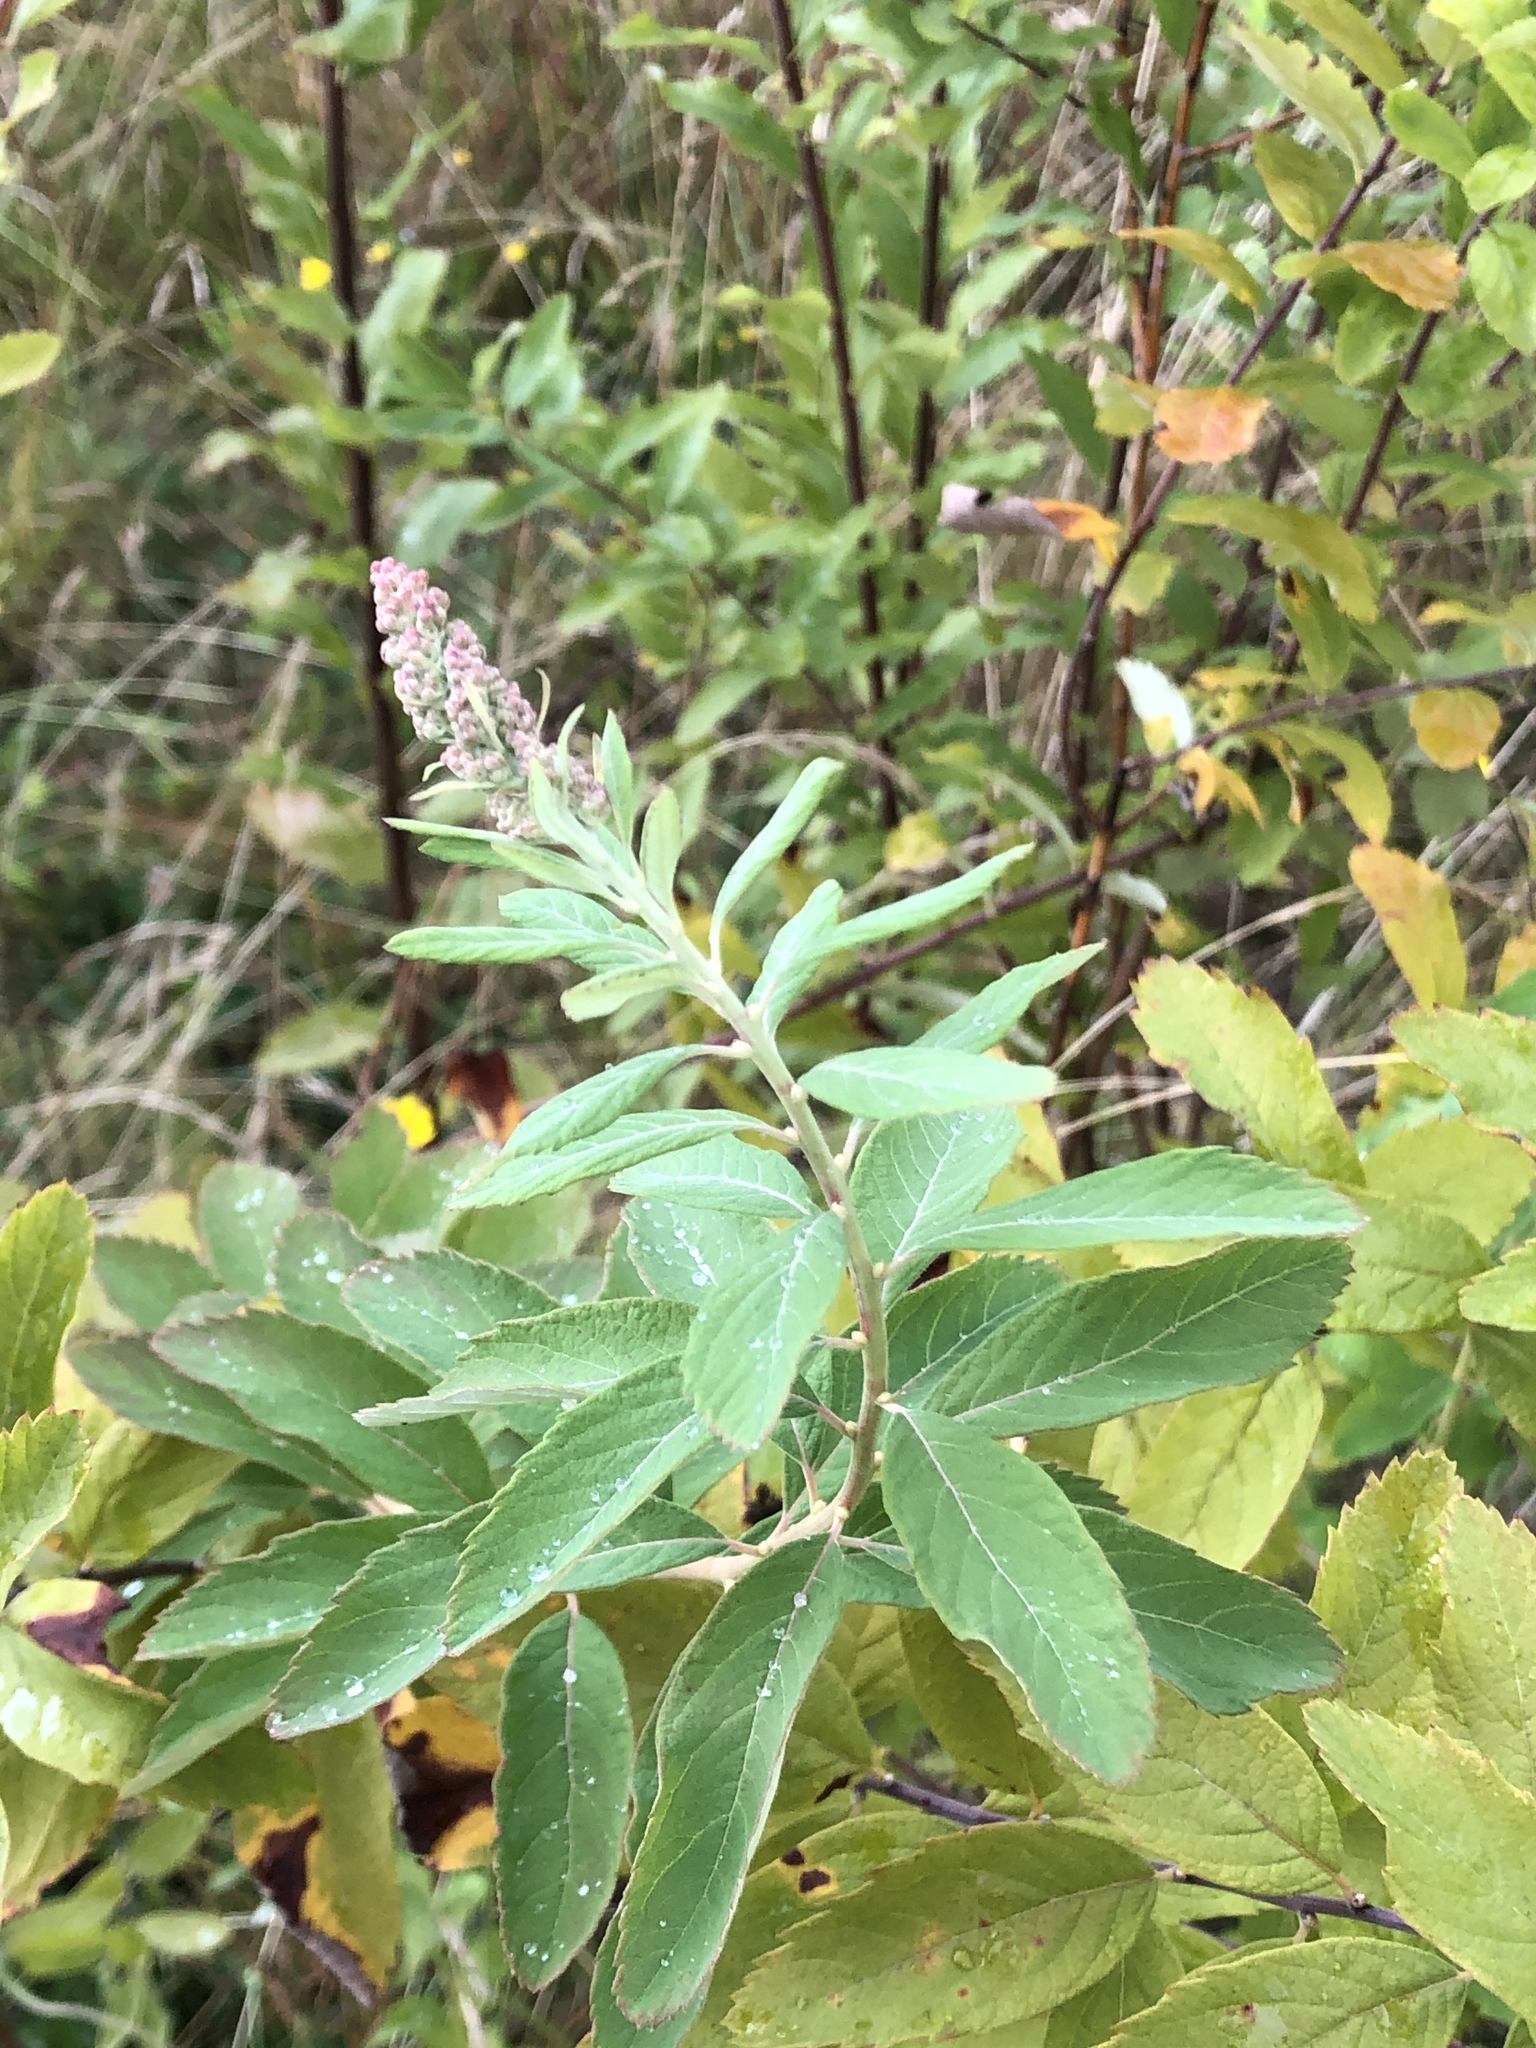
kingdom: Plantae
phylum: Tracheophyta
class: Magnoliopsida
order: Rosales
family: Rosaceae
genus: Spiraea
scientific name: Spiraea douglasii
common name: Steeplebush
